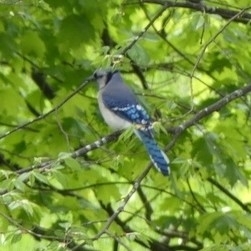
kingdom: Animalia
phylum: Chordata
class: Aves
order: Passeriformes
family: Corvidae
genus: Cyanocitta
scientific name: Cyanocitta cristata
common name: Blue jay
